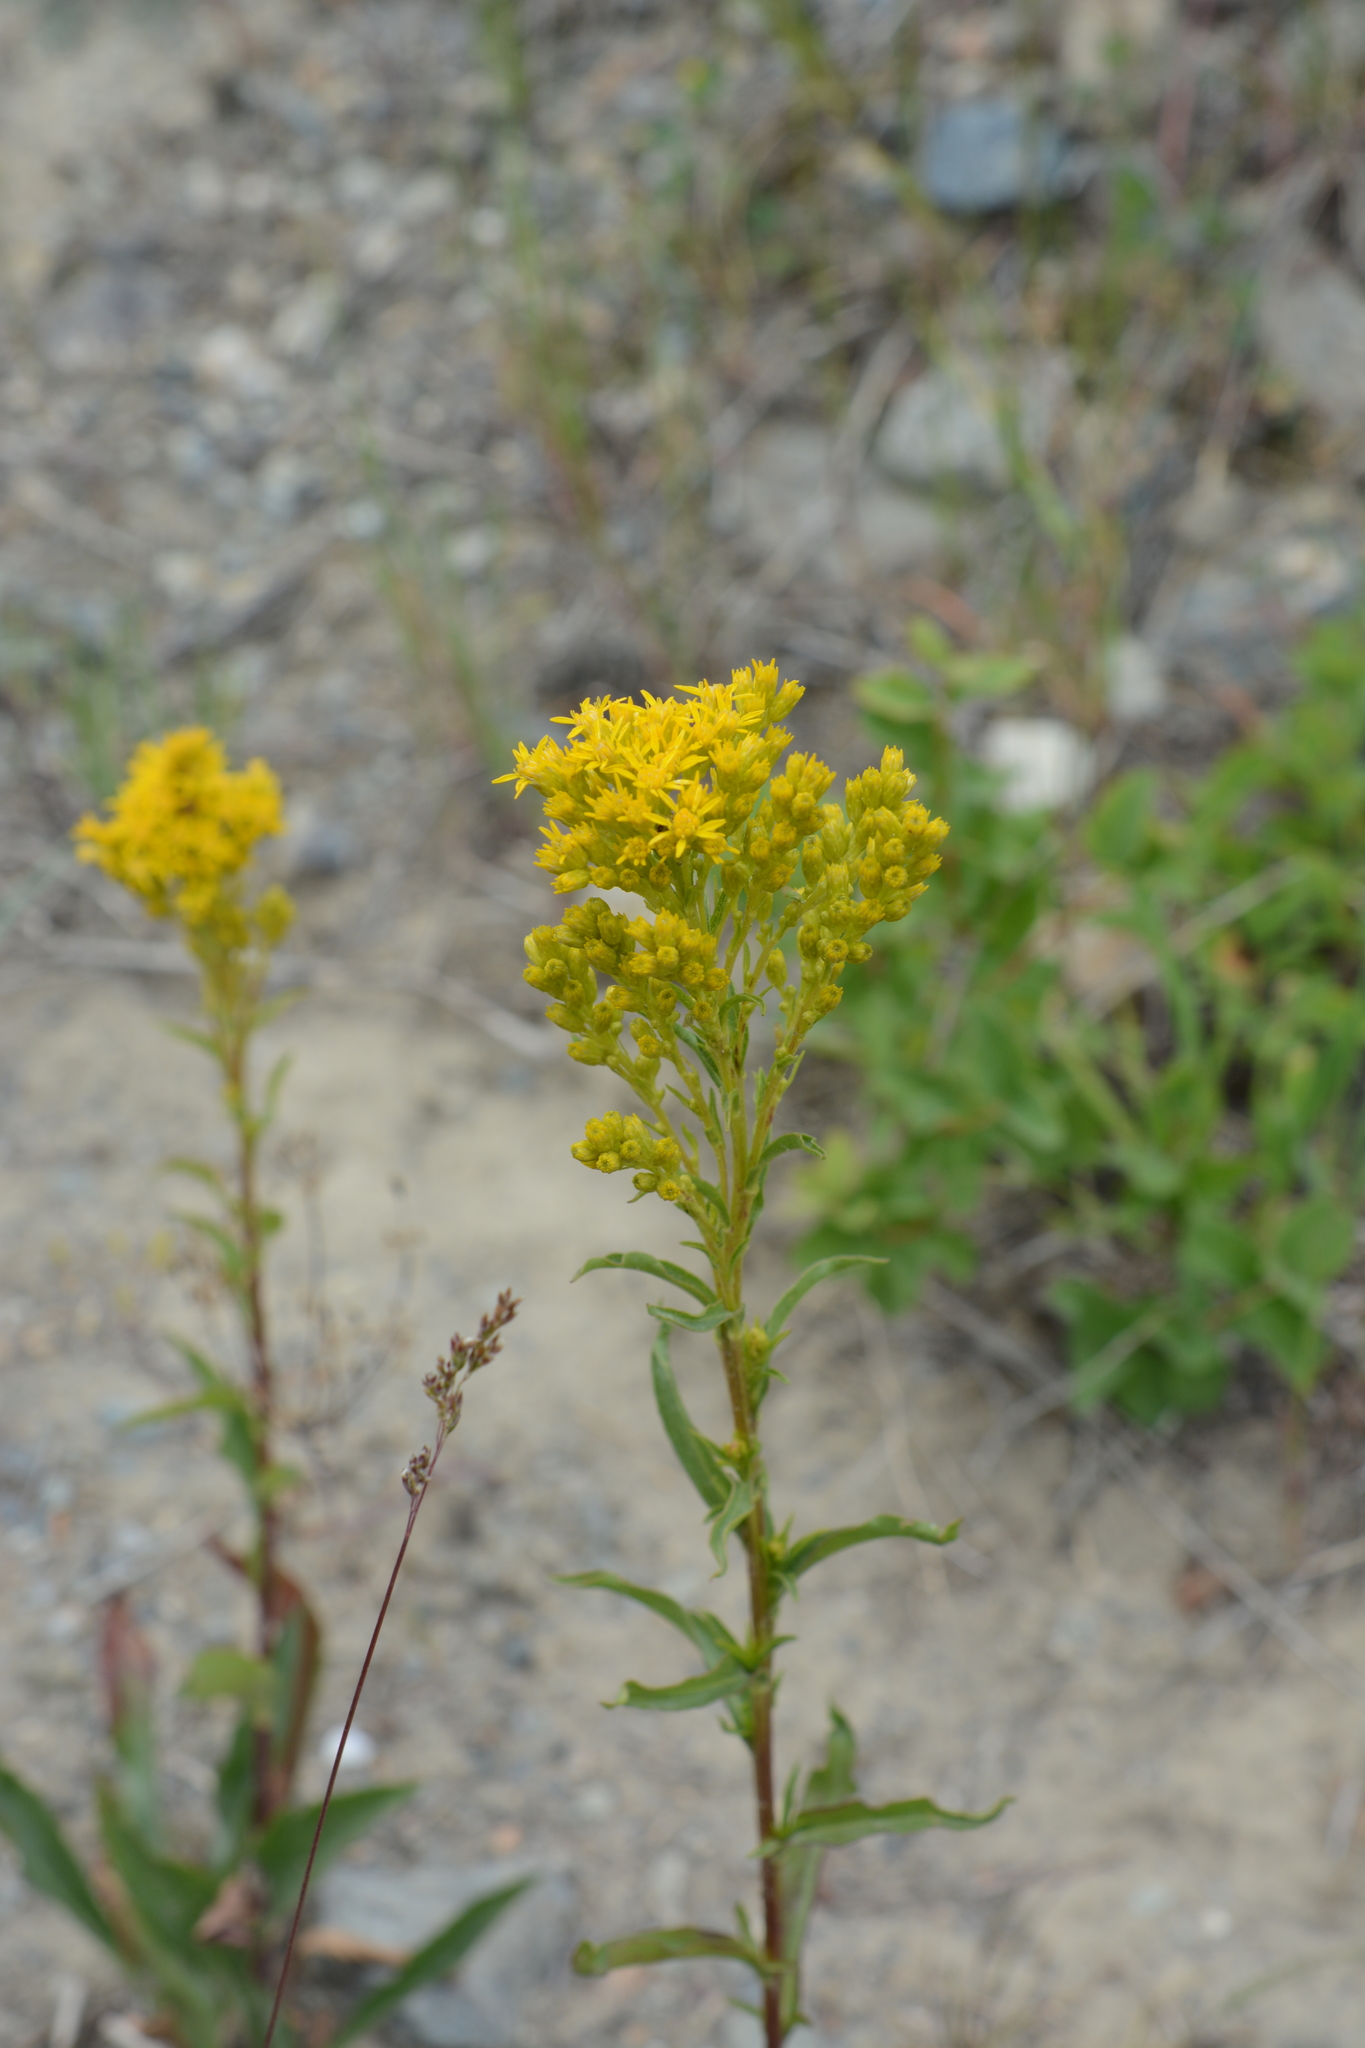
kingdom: Plantae
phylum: Tracheophyta
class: Magnoliopsida
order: Asterales
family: Asteraceae
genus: Solidago
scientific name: Solidago missouriensis
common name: Prairie goldenrod
